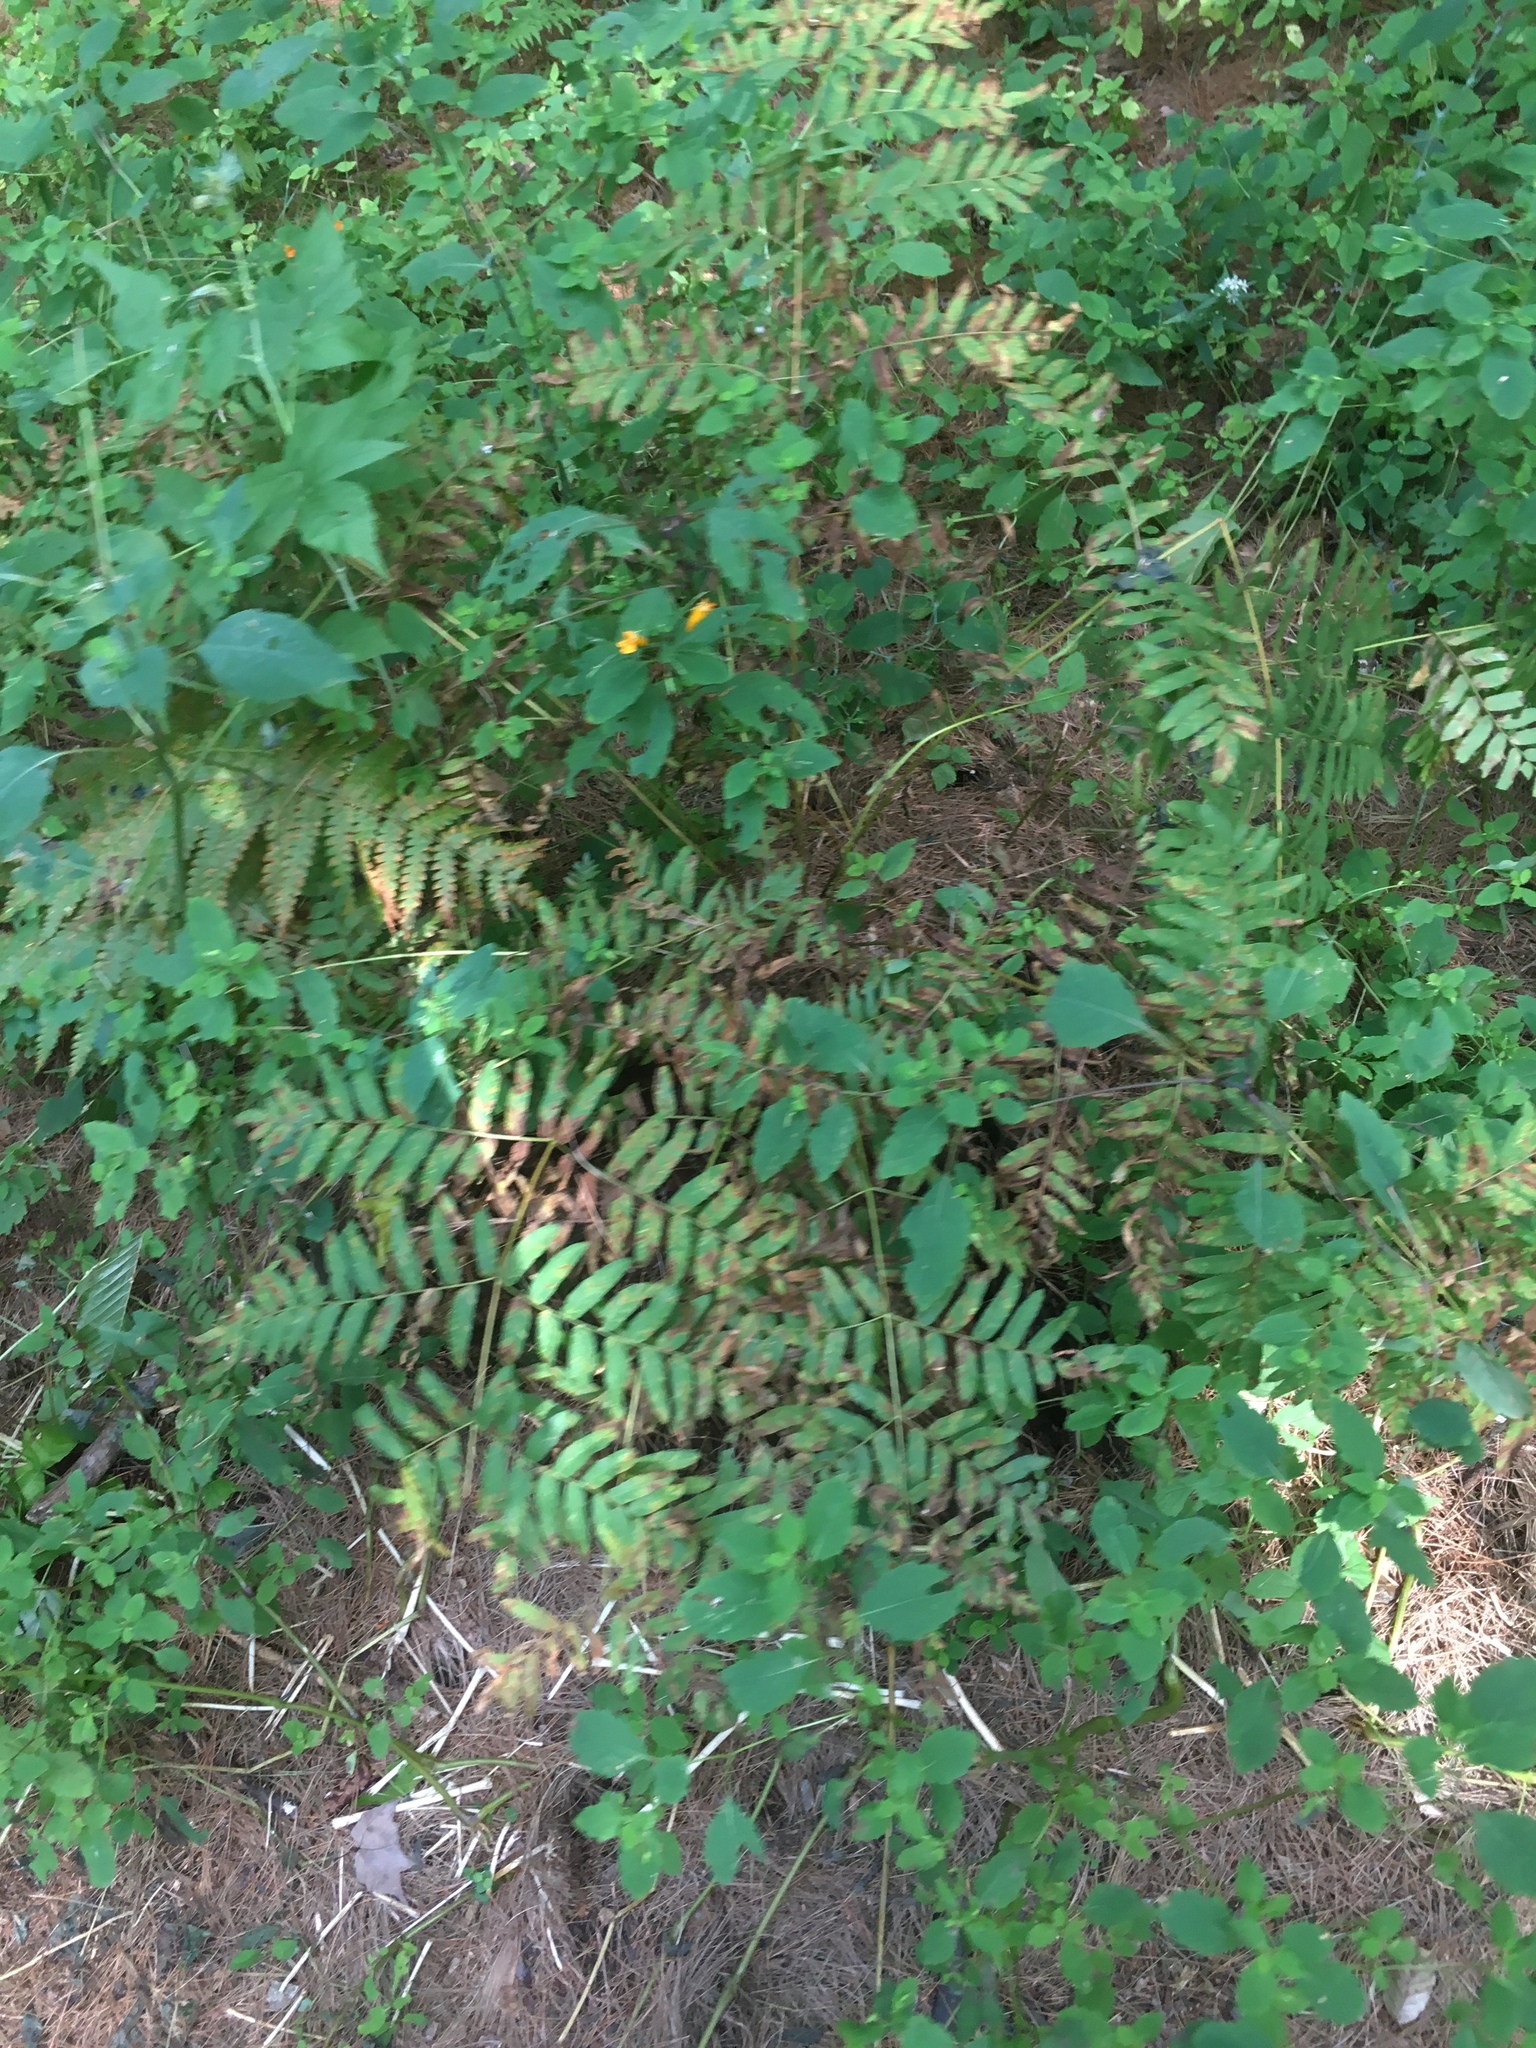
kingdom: Plantae
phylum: Tracheophyta
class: Polypodiopsida
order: Osmundales
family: Osmundaceae
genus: Osmunda
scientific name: Osmunda spectabilis
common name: American royal fern
